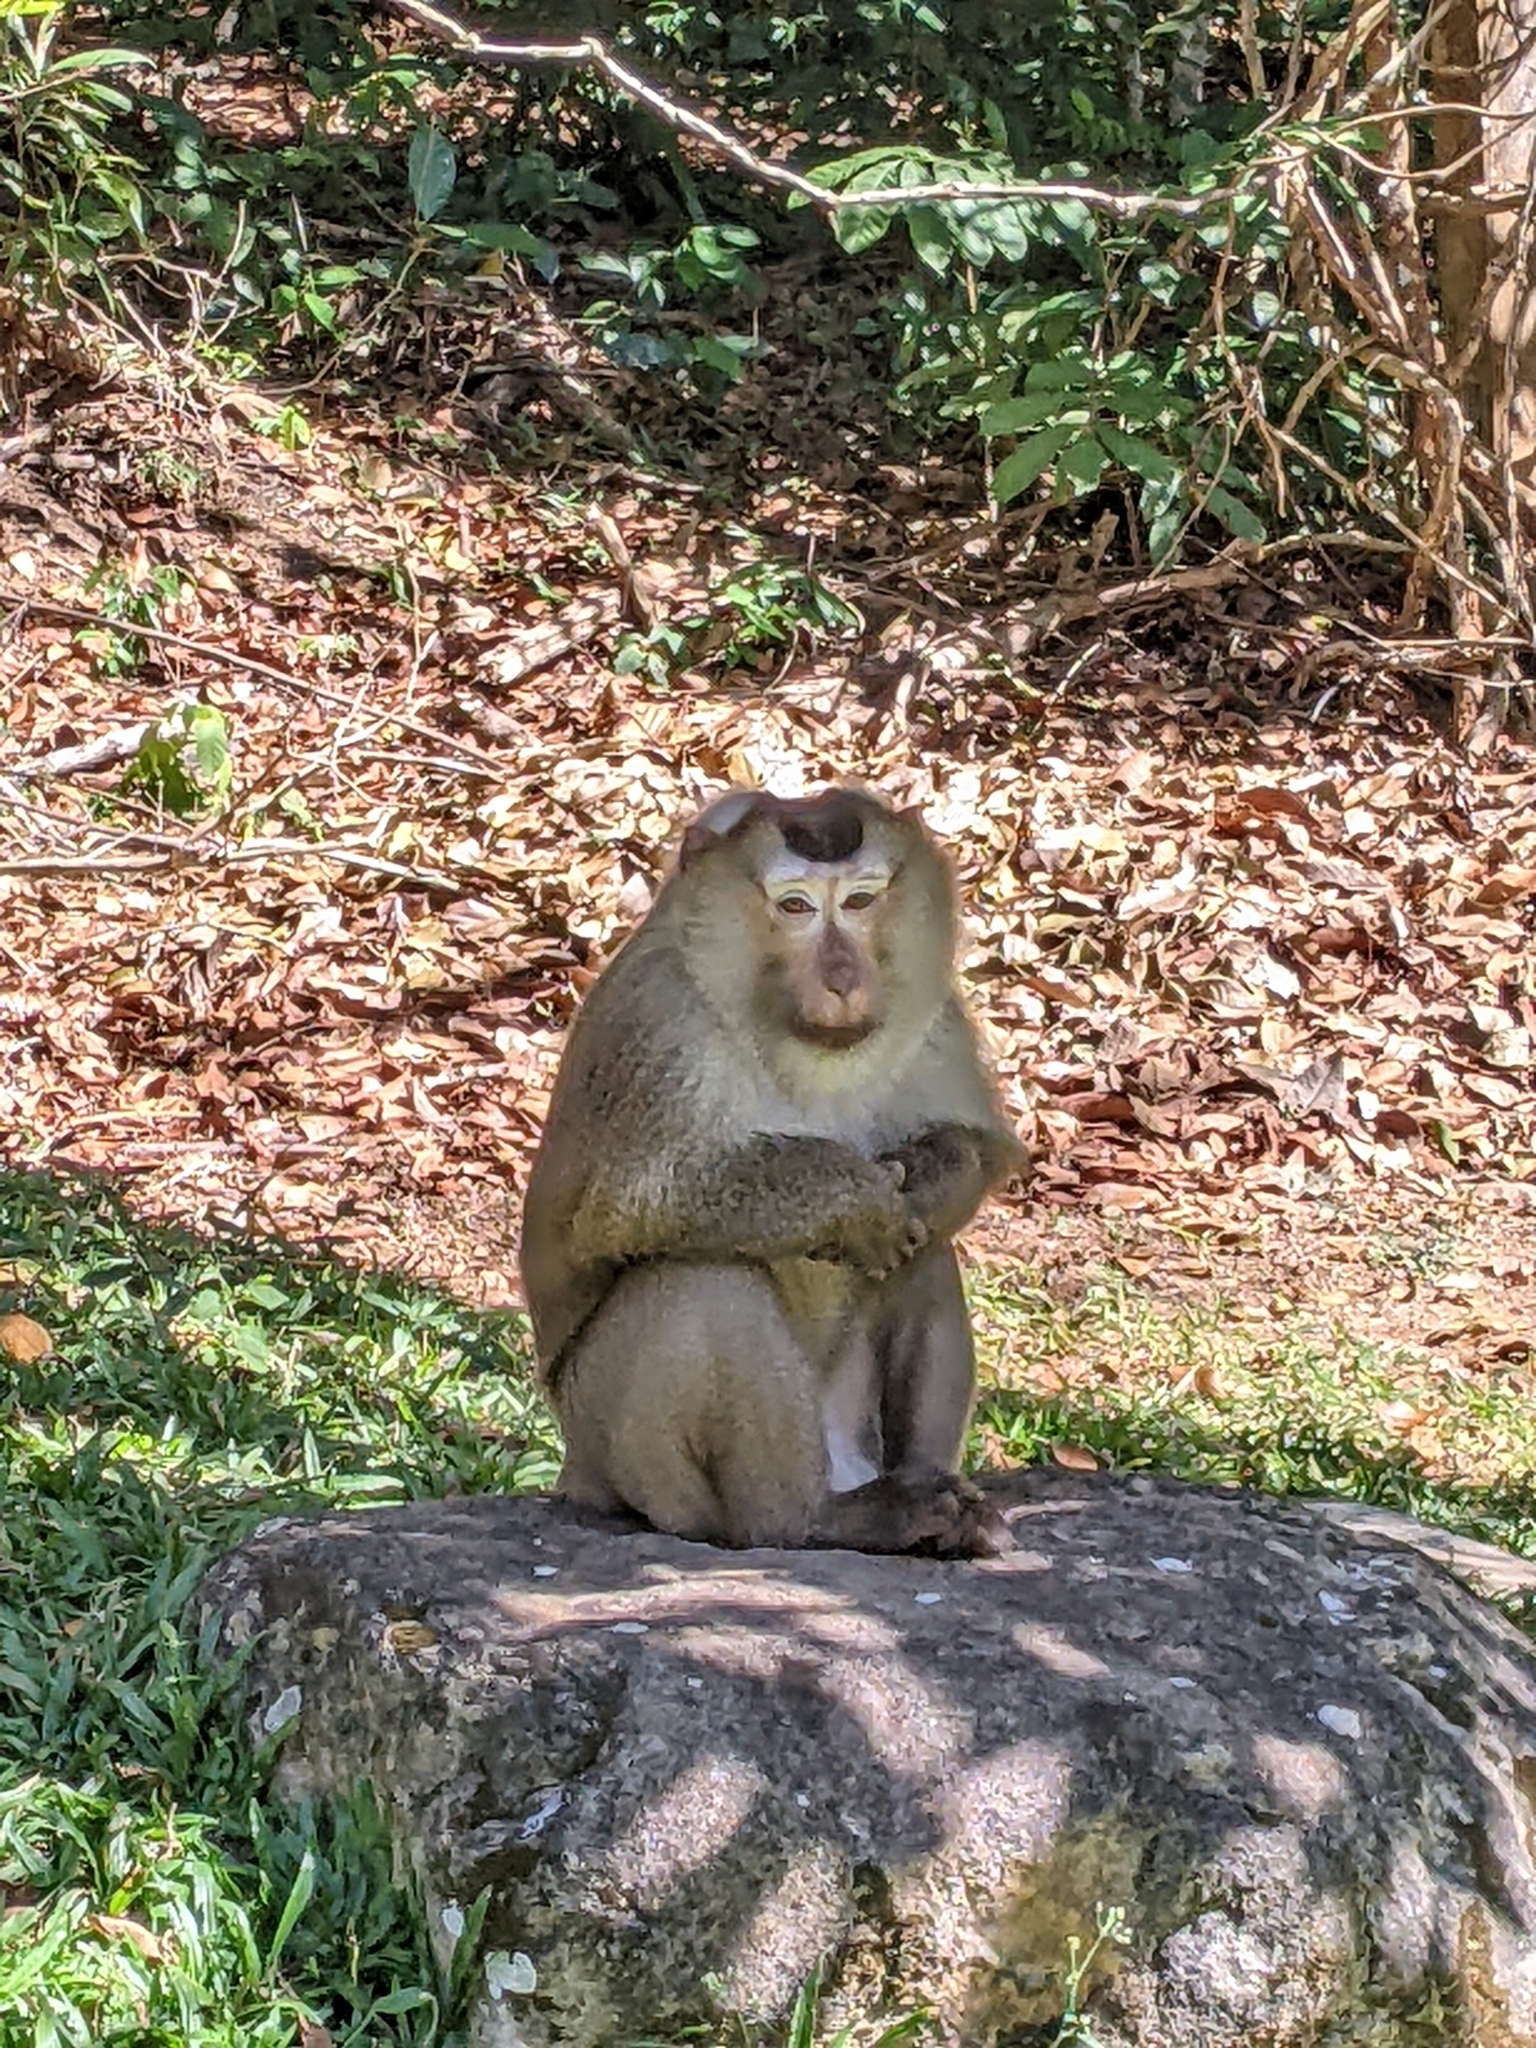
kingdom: Animalia
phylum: Chordata
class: Mammalia
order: Primates
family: Cercopithecidae
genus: Macaca
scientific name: Macaca leonina
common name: Northern pig-tailed macaque
